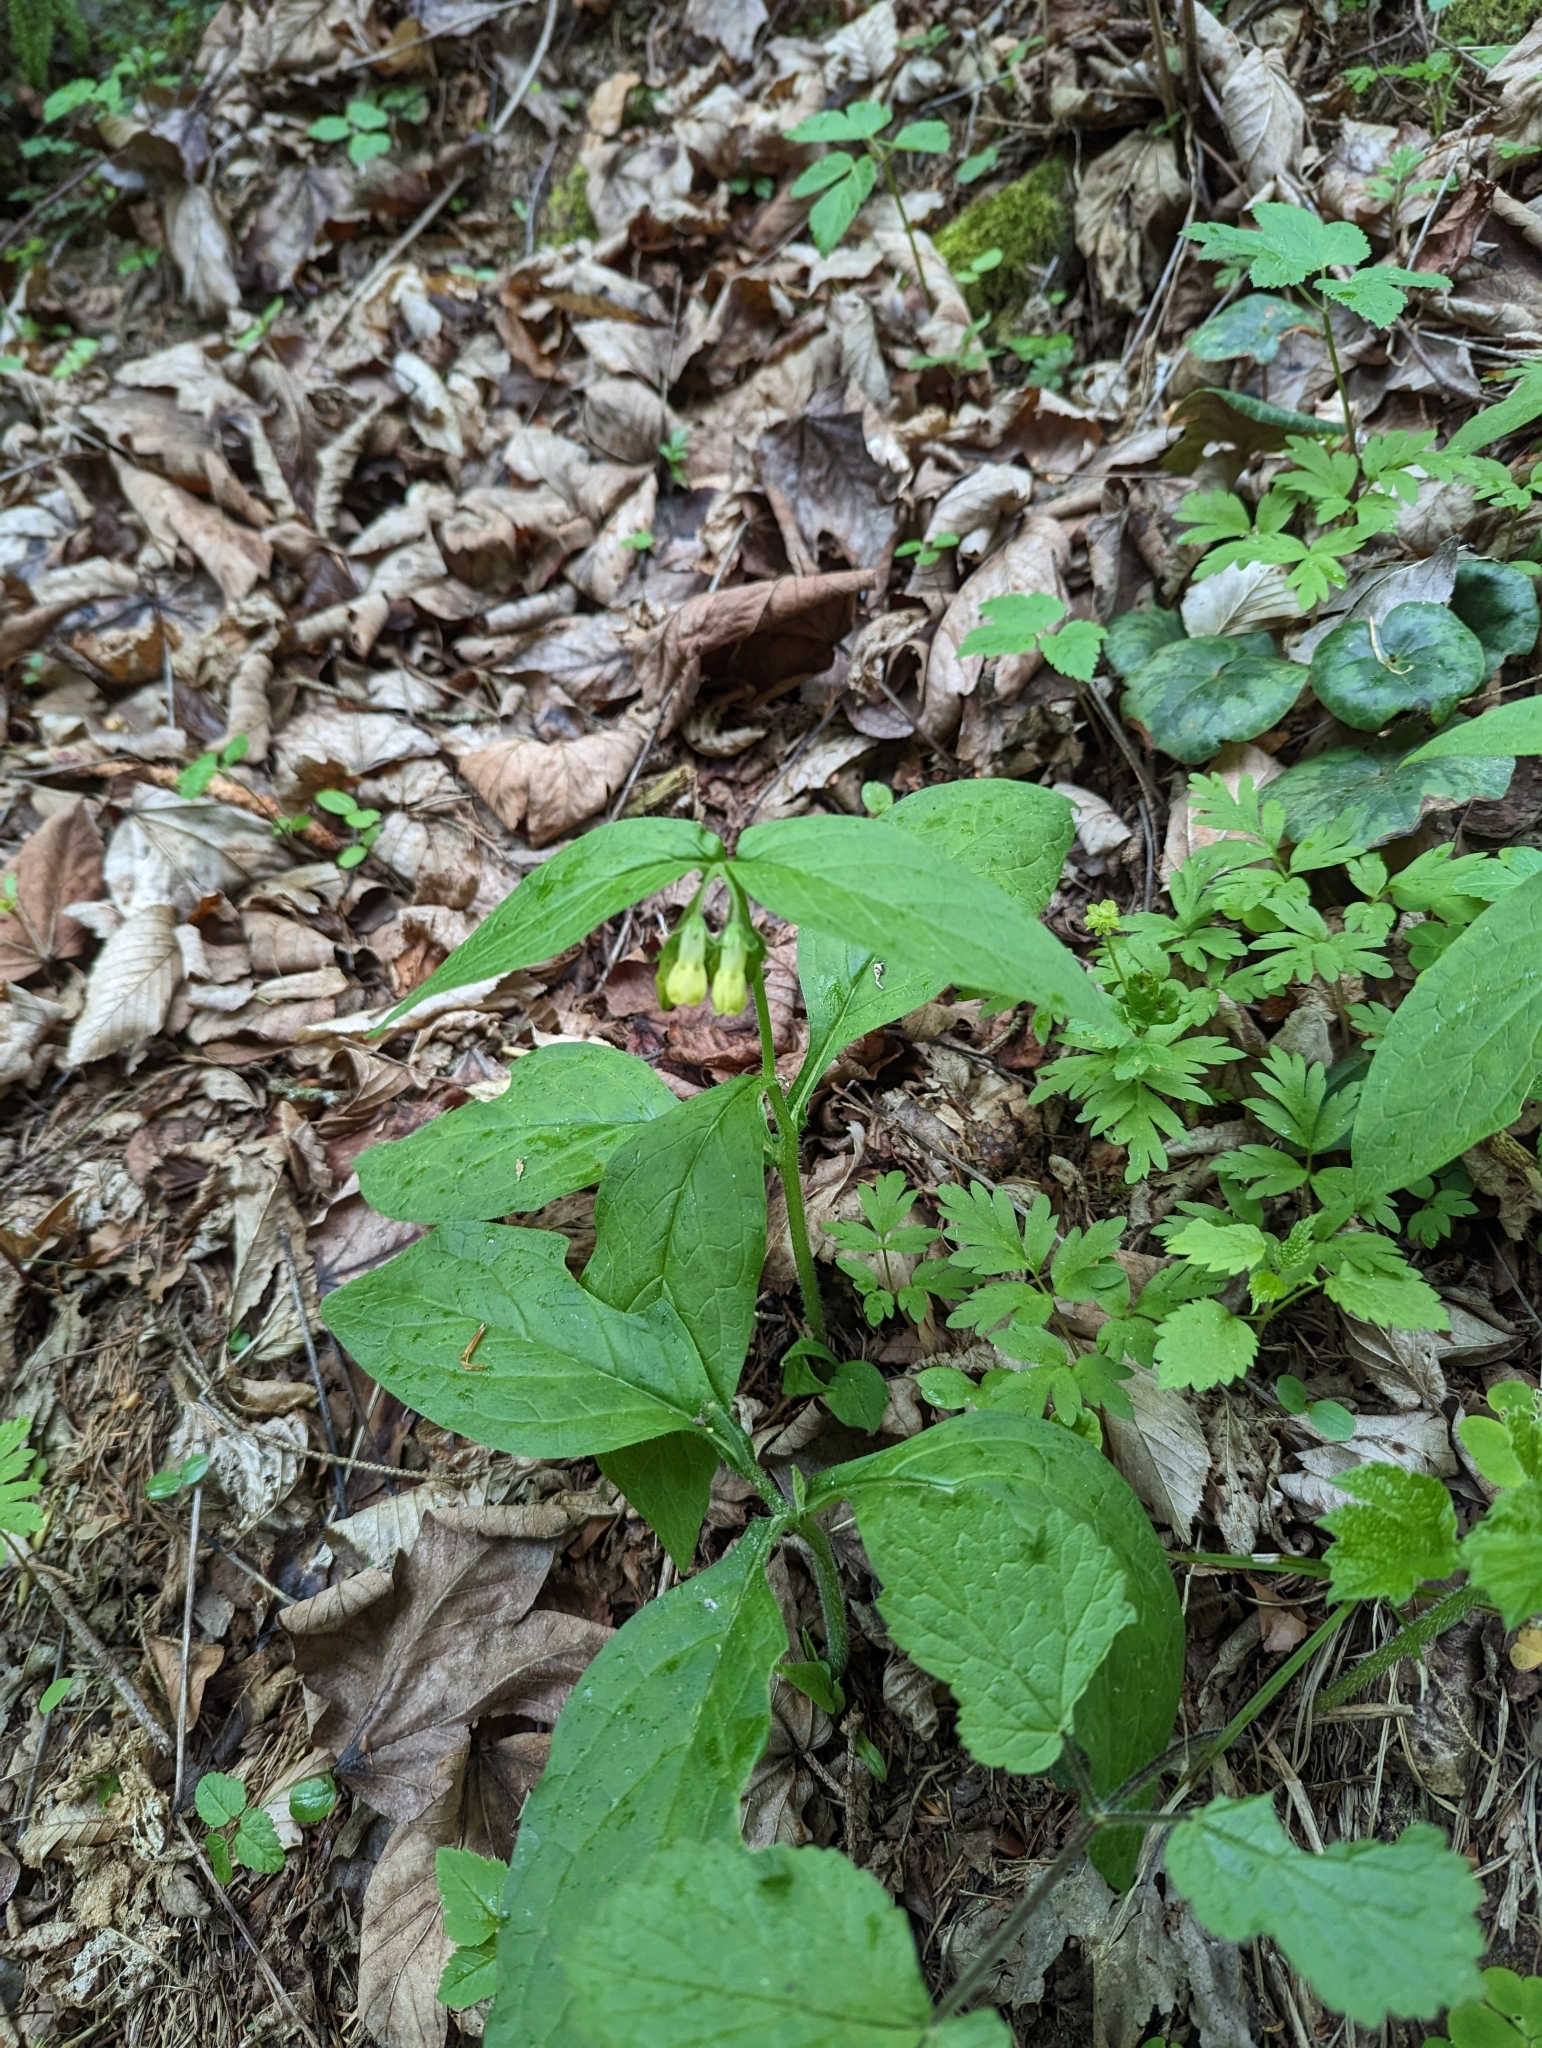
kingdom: Plantae
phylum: Tracheophyta
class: Magnoliopsida
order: Boraginales
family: Boraginaceae
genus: Symphytum
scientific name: Symphytum tuberosum
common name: Tuberous comfrey
